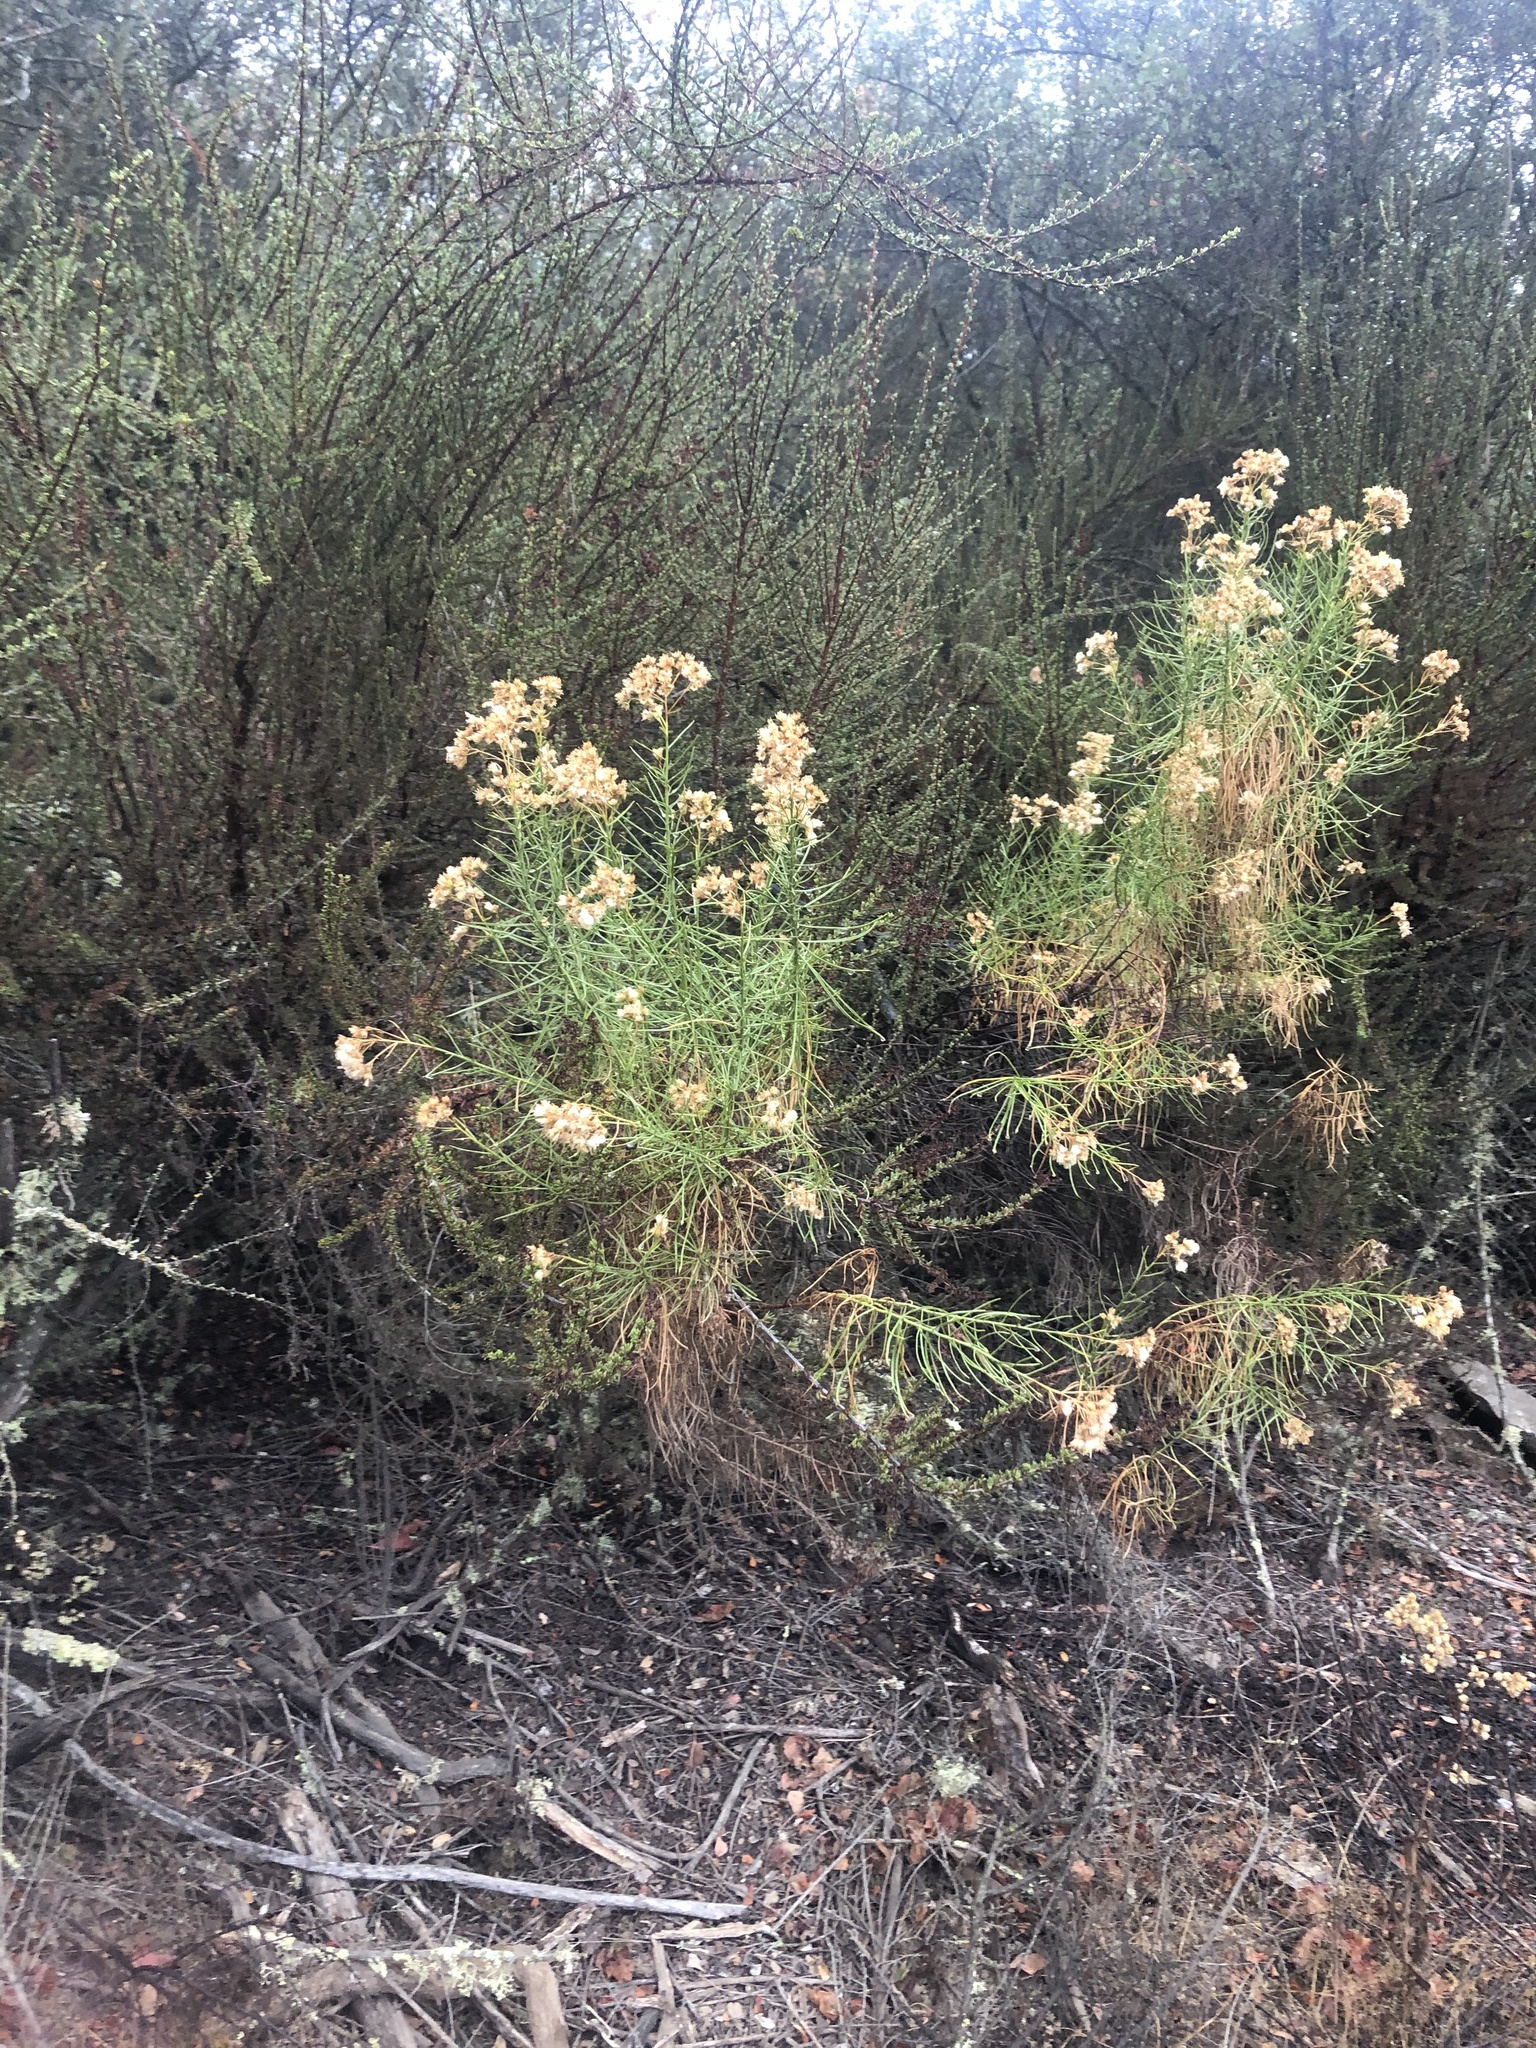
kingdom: Plantae
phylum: Tracheophyta
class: Magnoliopsida
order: Asterales
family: Asteraceae
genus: Ericameria
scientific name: Ericameria arborescens
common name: Goldenfleece
